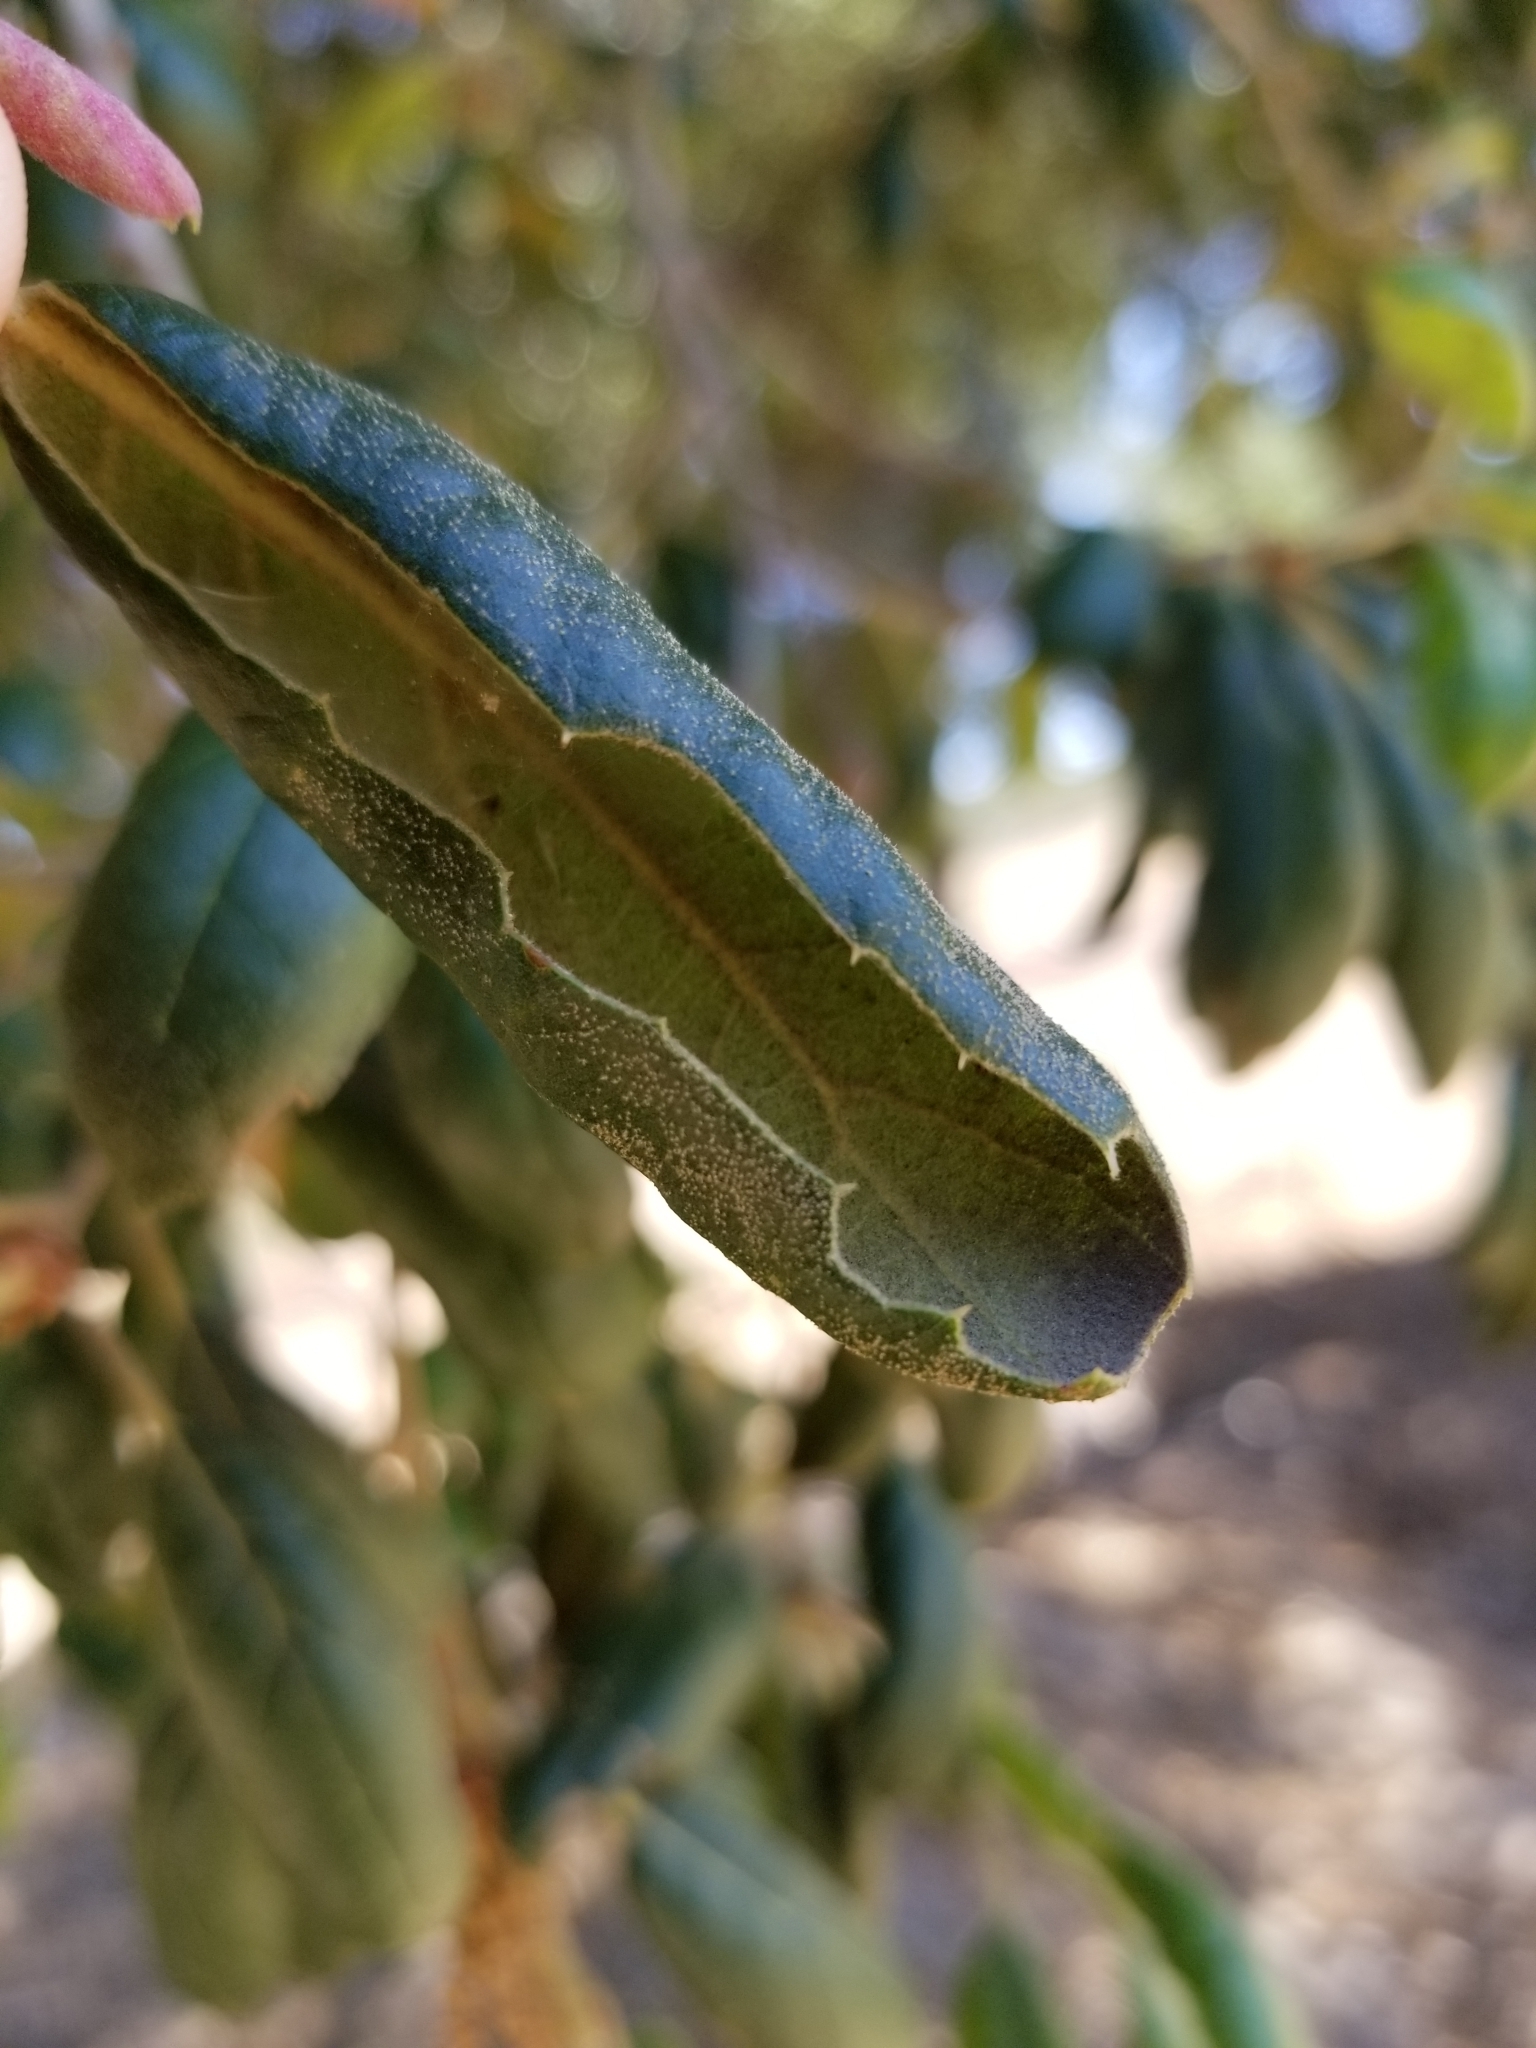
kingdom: Plantae
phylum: Tracheophyta
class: Magnoliopsida
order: Fagales
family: Fagaceae
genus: Quercus
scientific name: Quercus agrifolia
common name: California live oak
